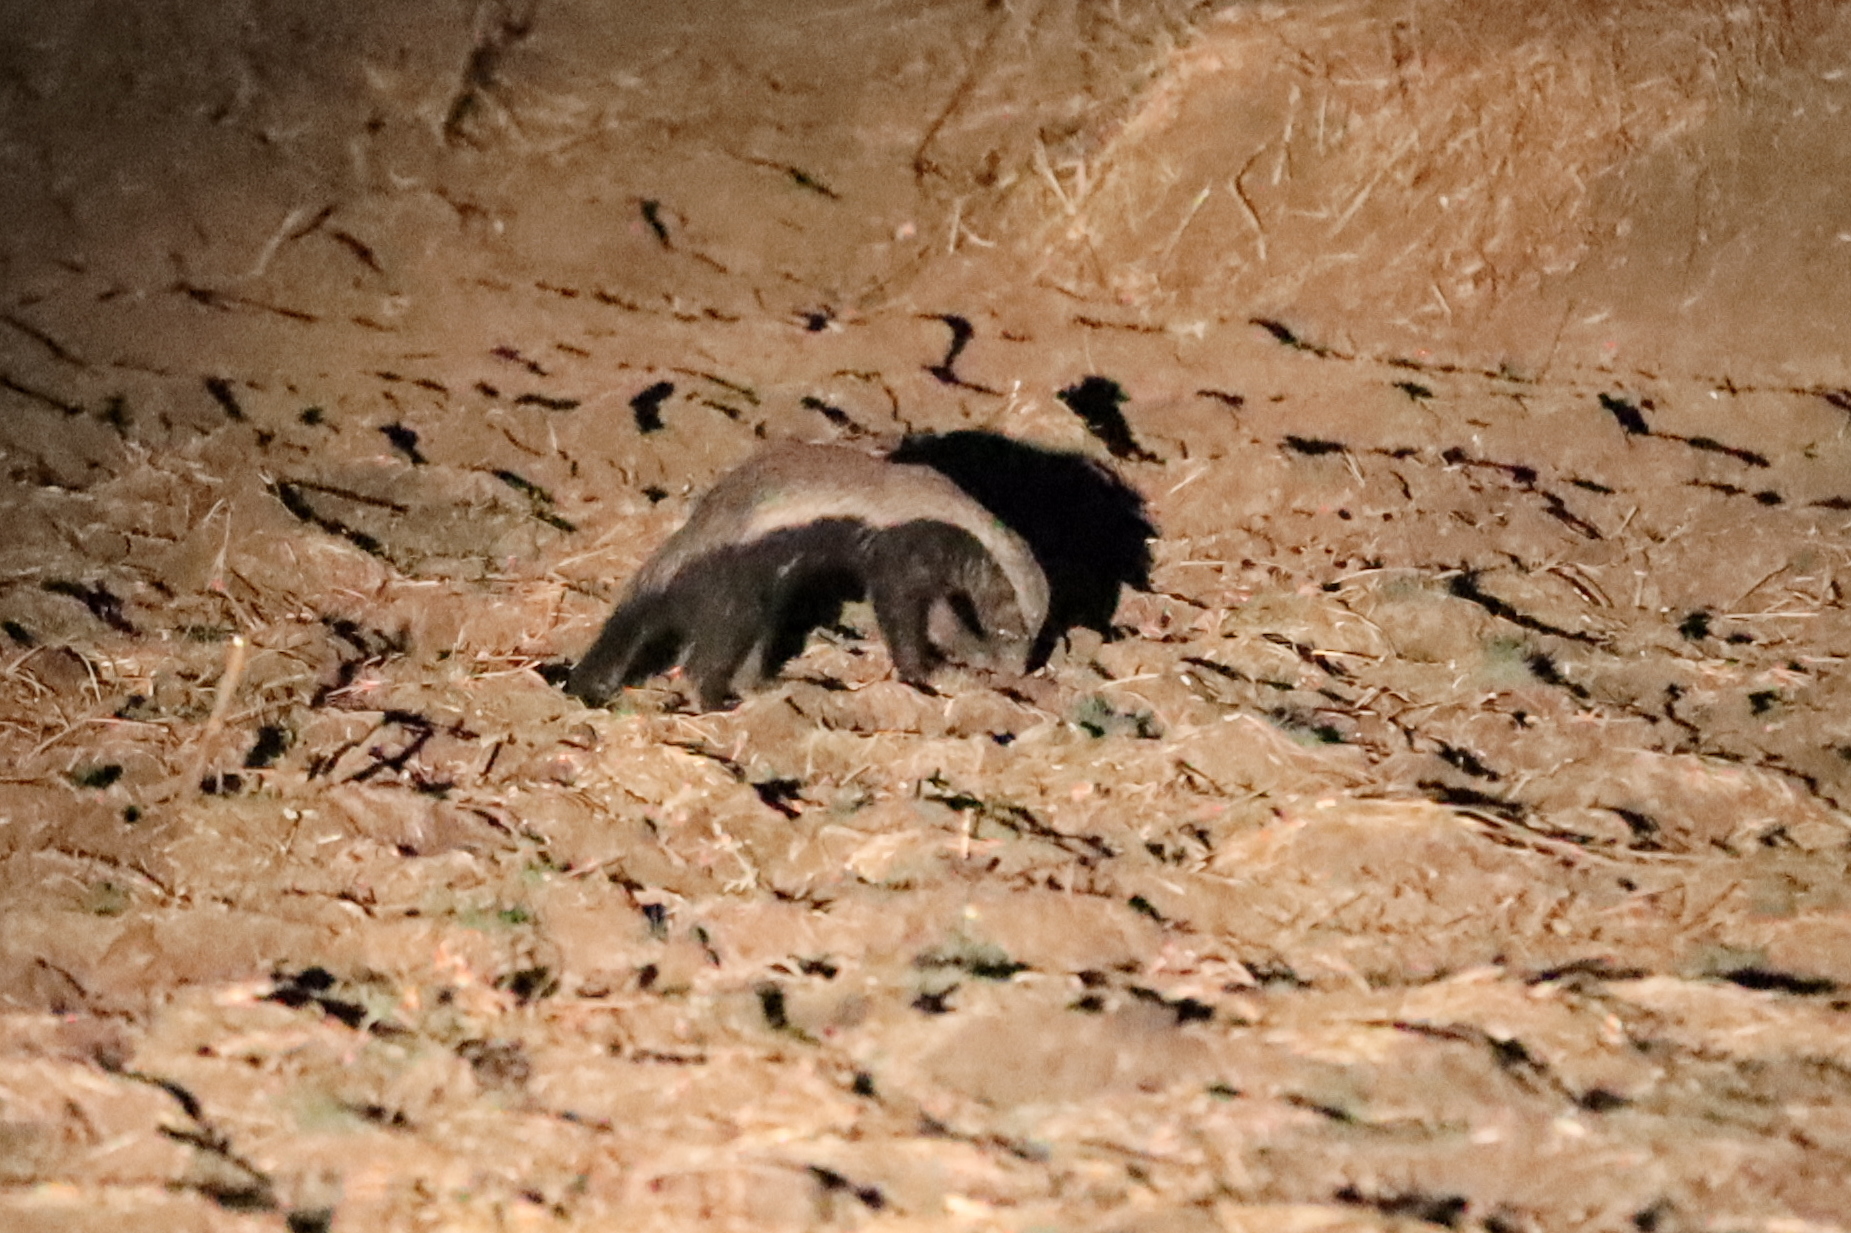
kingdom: Animalia
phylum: Chordata
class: Mammalia
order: Carnivora
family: Mustelidae
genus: Mellivora
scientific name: Mellivora capensis
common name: Honey badger
